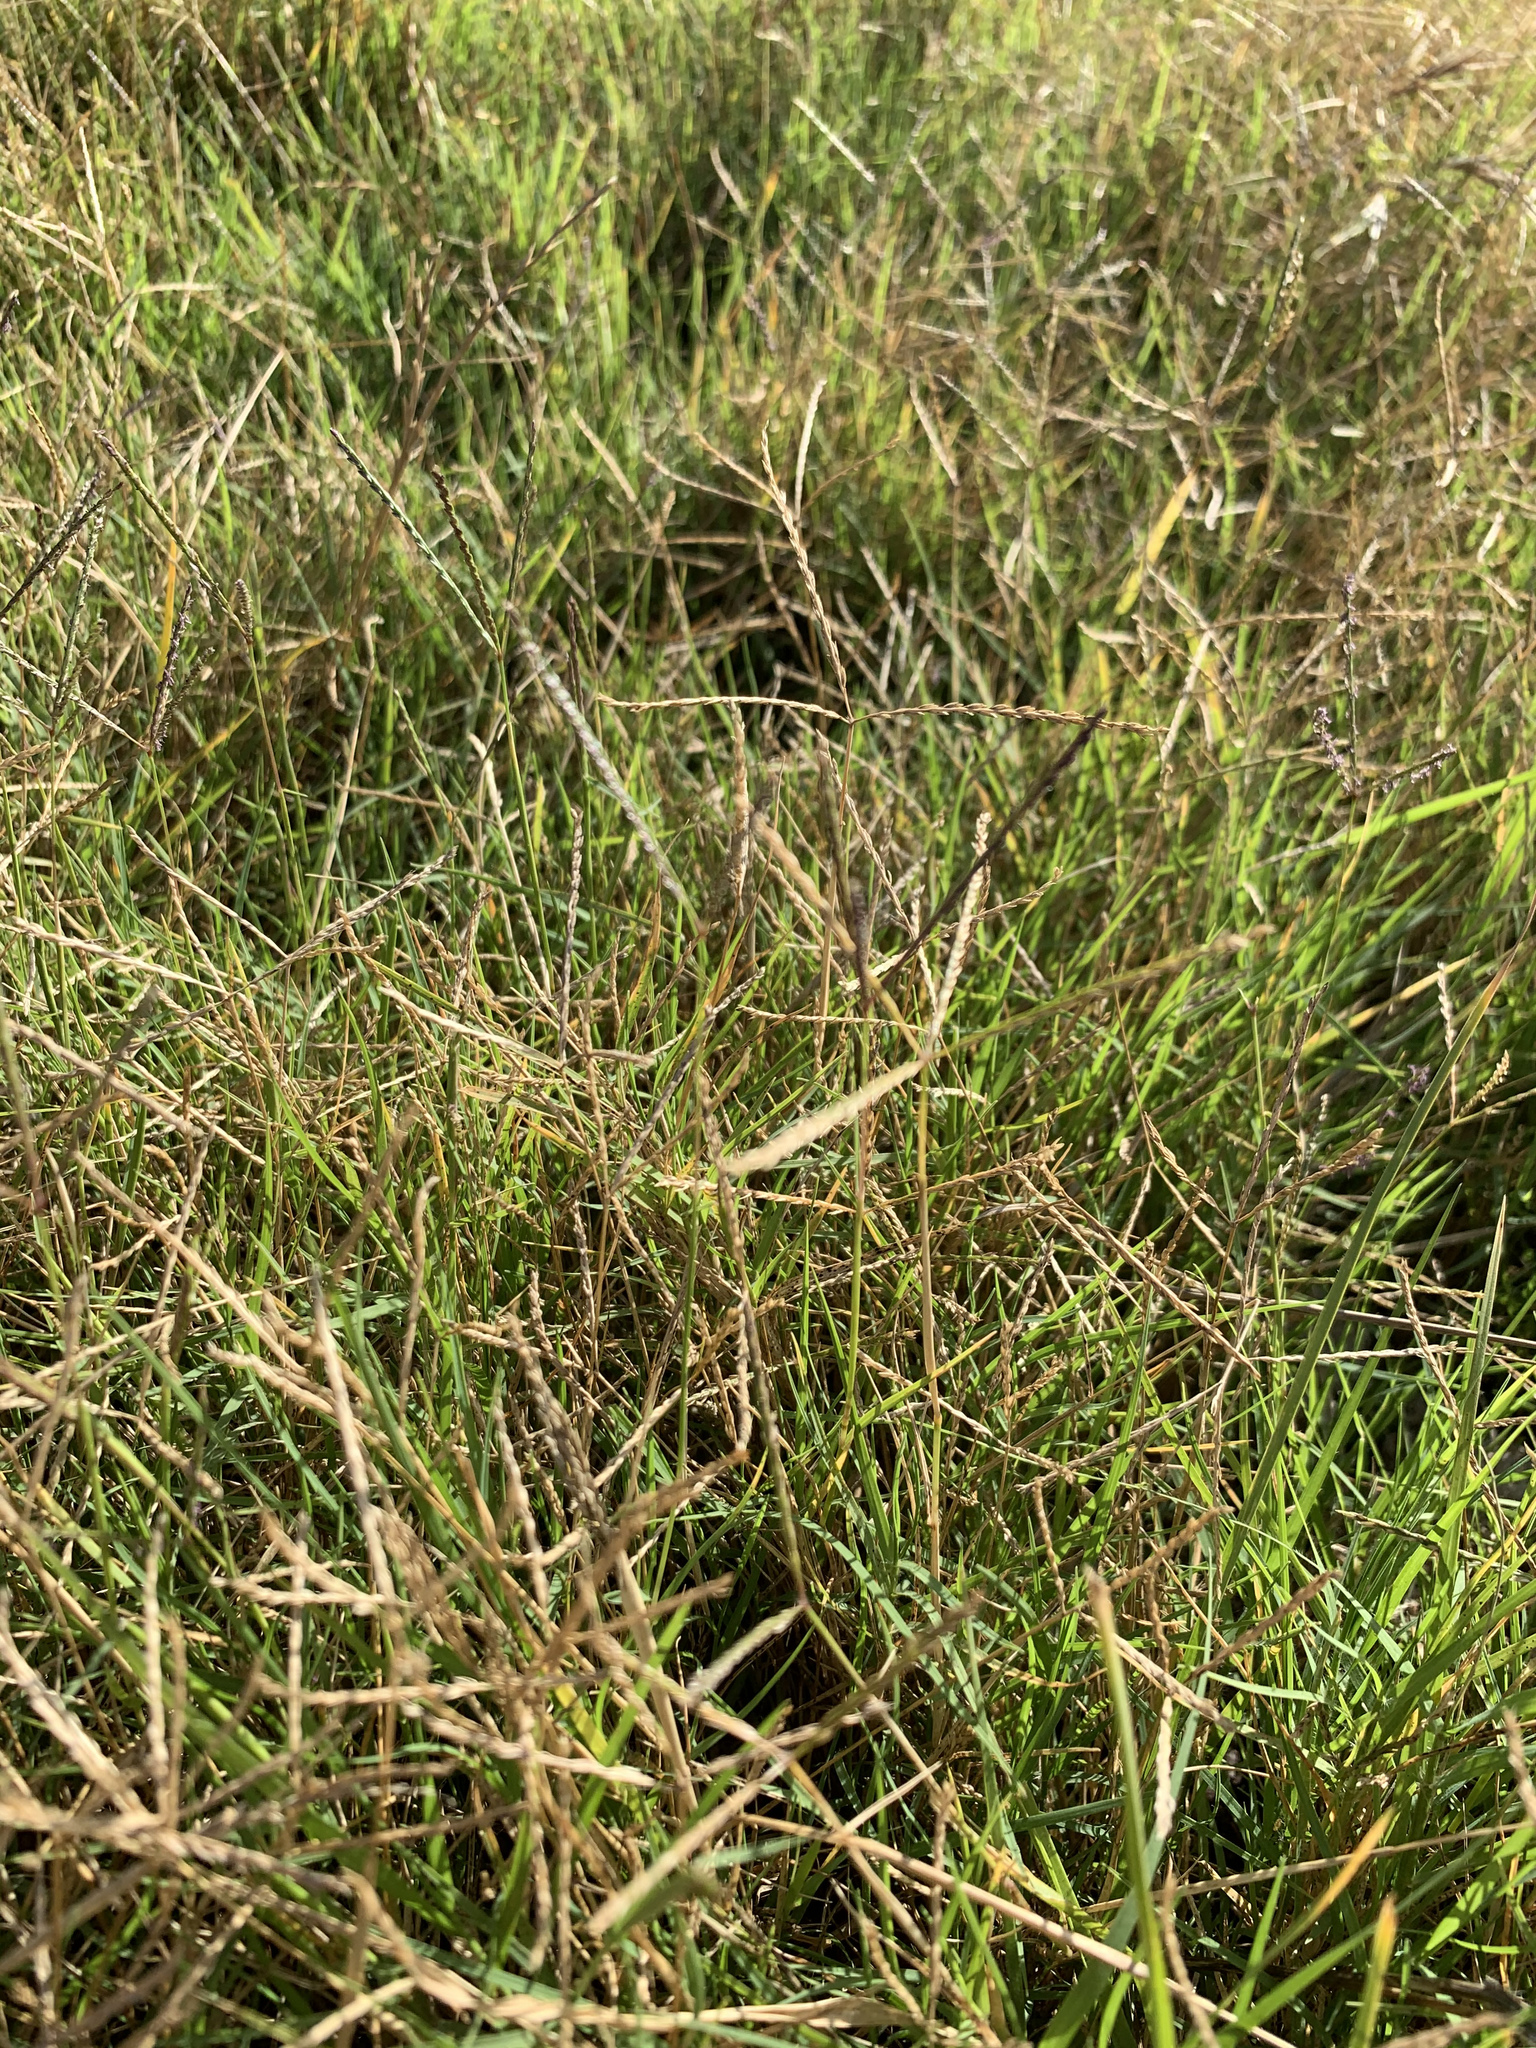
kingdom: Plantae
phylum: Tracheophyta
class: Liliopsida
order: Poales
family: Poaceae
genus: Cynodon
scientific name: Cynodon dactylon
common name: Bermuda grass
